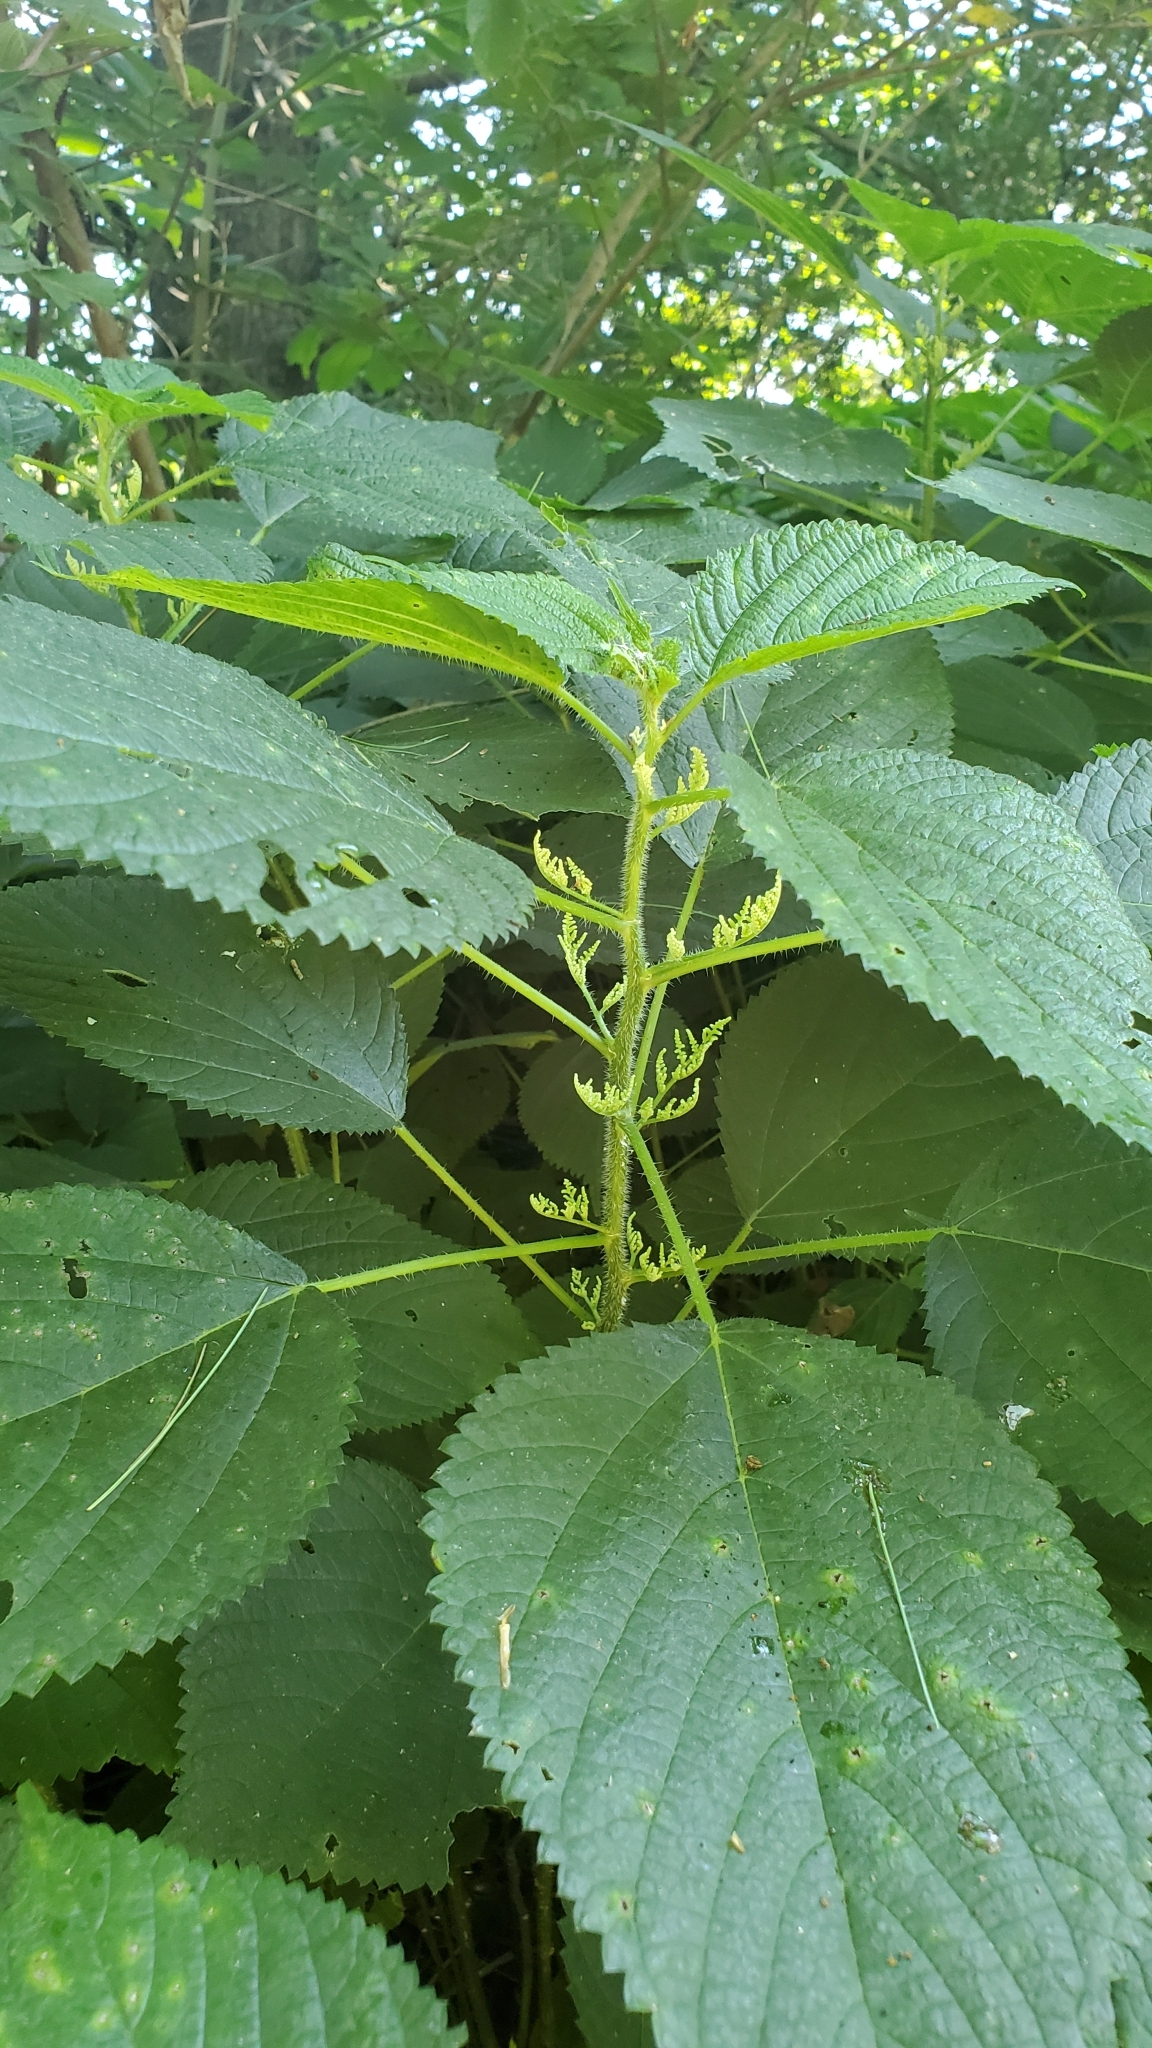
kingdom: Plantae
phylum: Tracheophyta
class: Magnoliopsida
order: Rosales
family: Urticaceae
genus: Laportea
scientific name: Laportea canadensis
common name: Canada nettle
